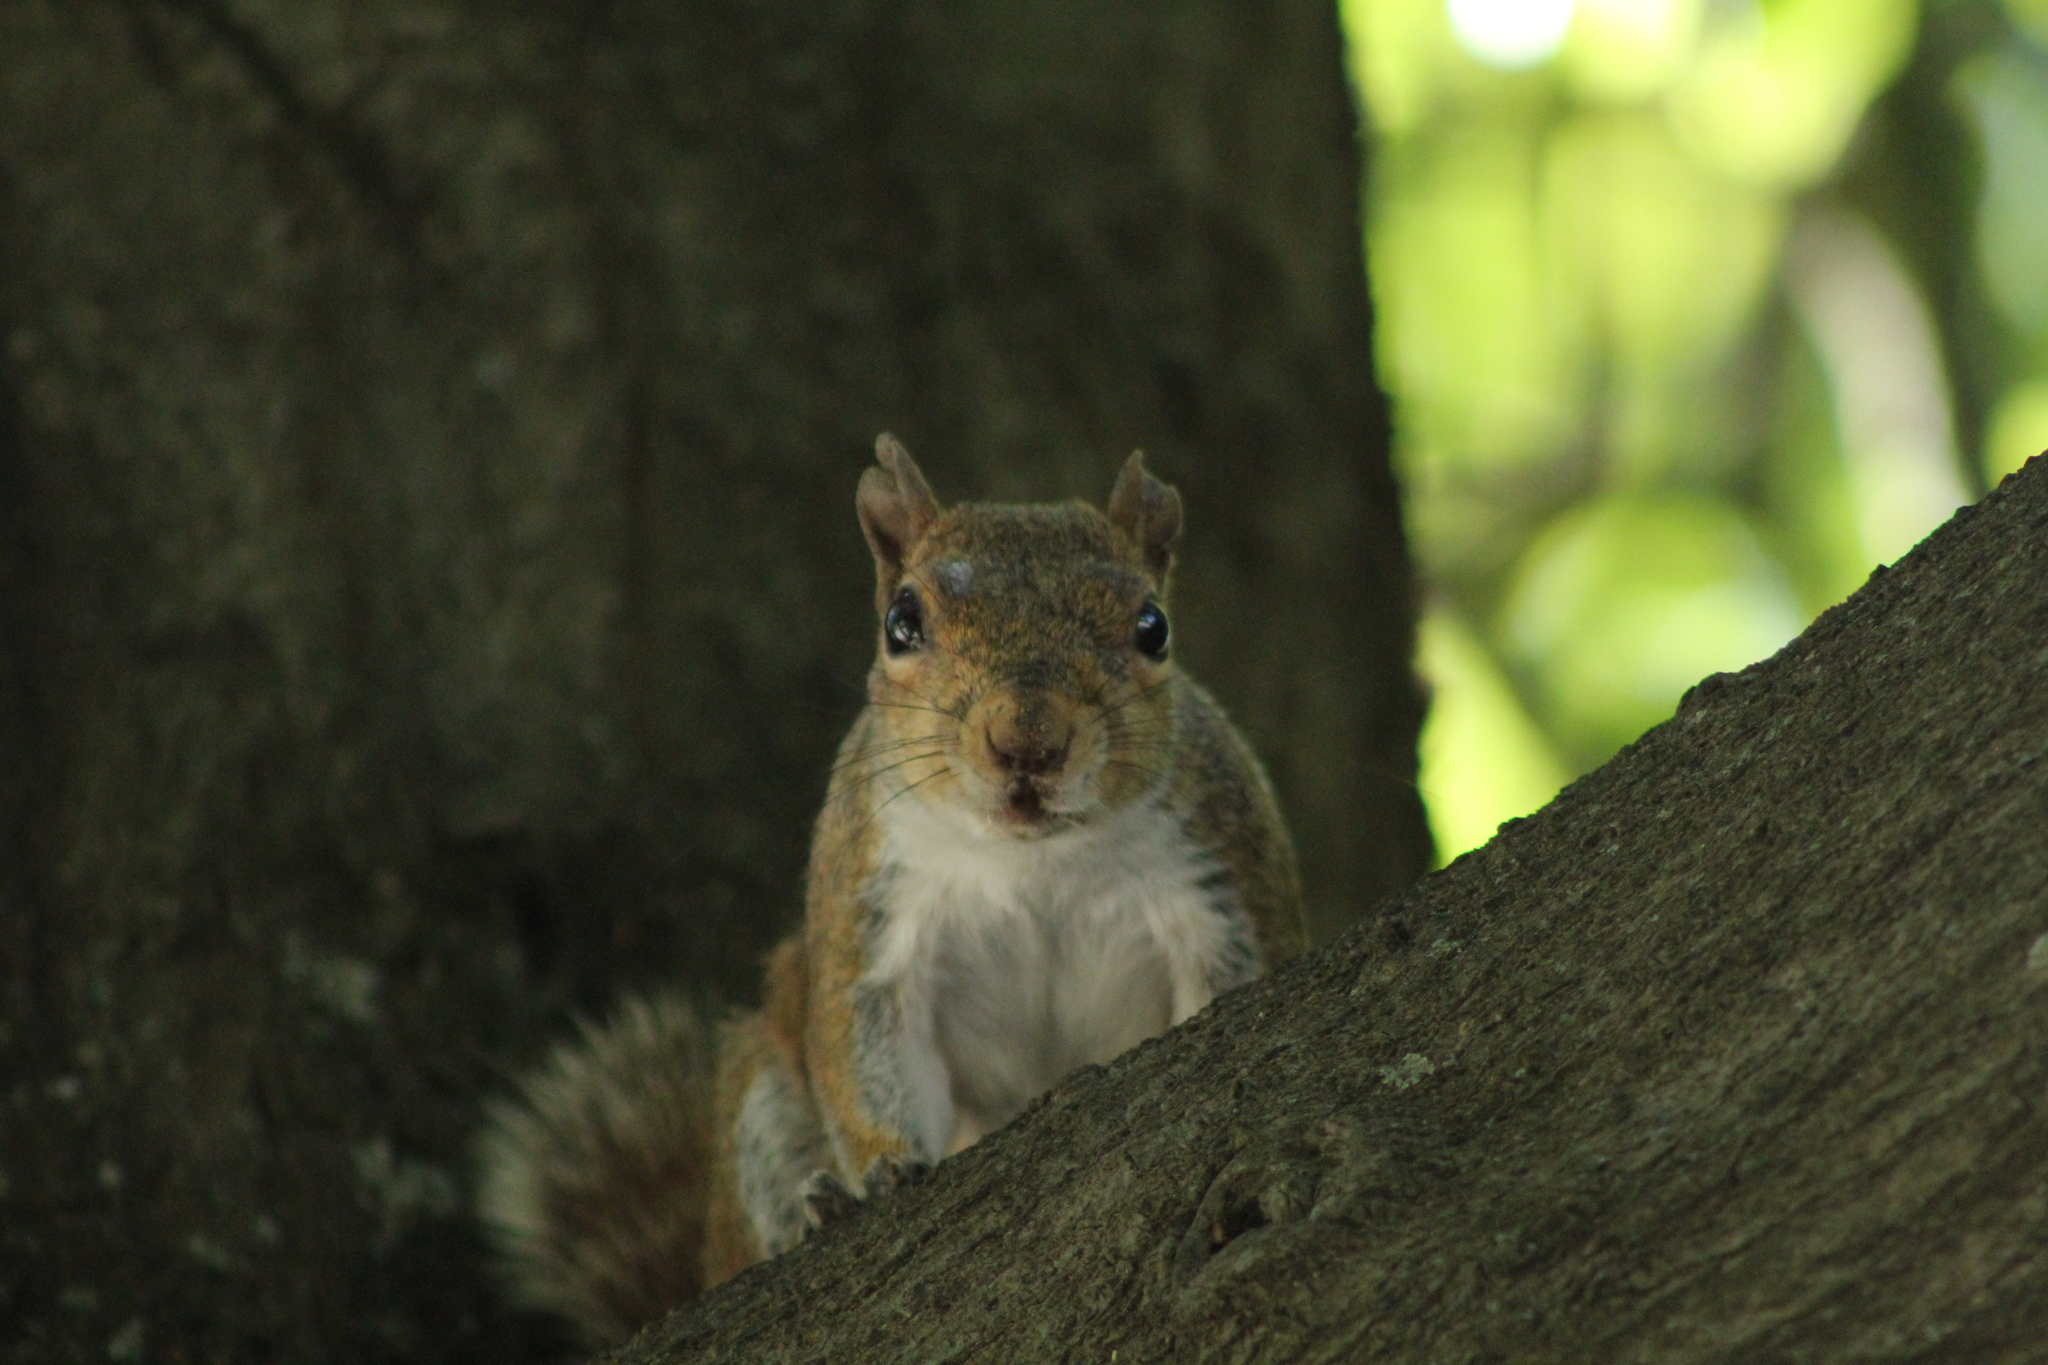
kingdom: Animalia
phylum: Chordata
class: Mammalia
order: Rodentia
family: Sciuridae
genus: Sciurus
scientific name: Sciurus carolinensis
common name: Eastern gray squirrel
